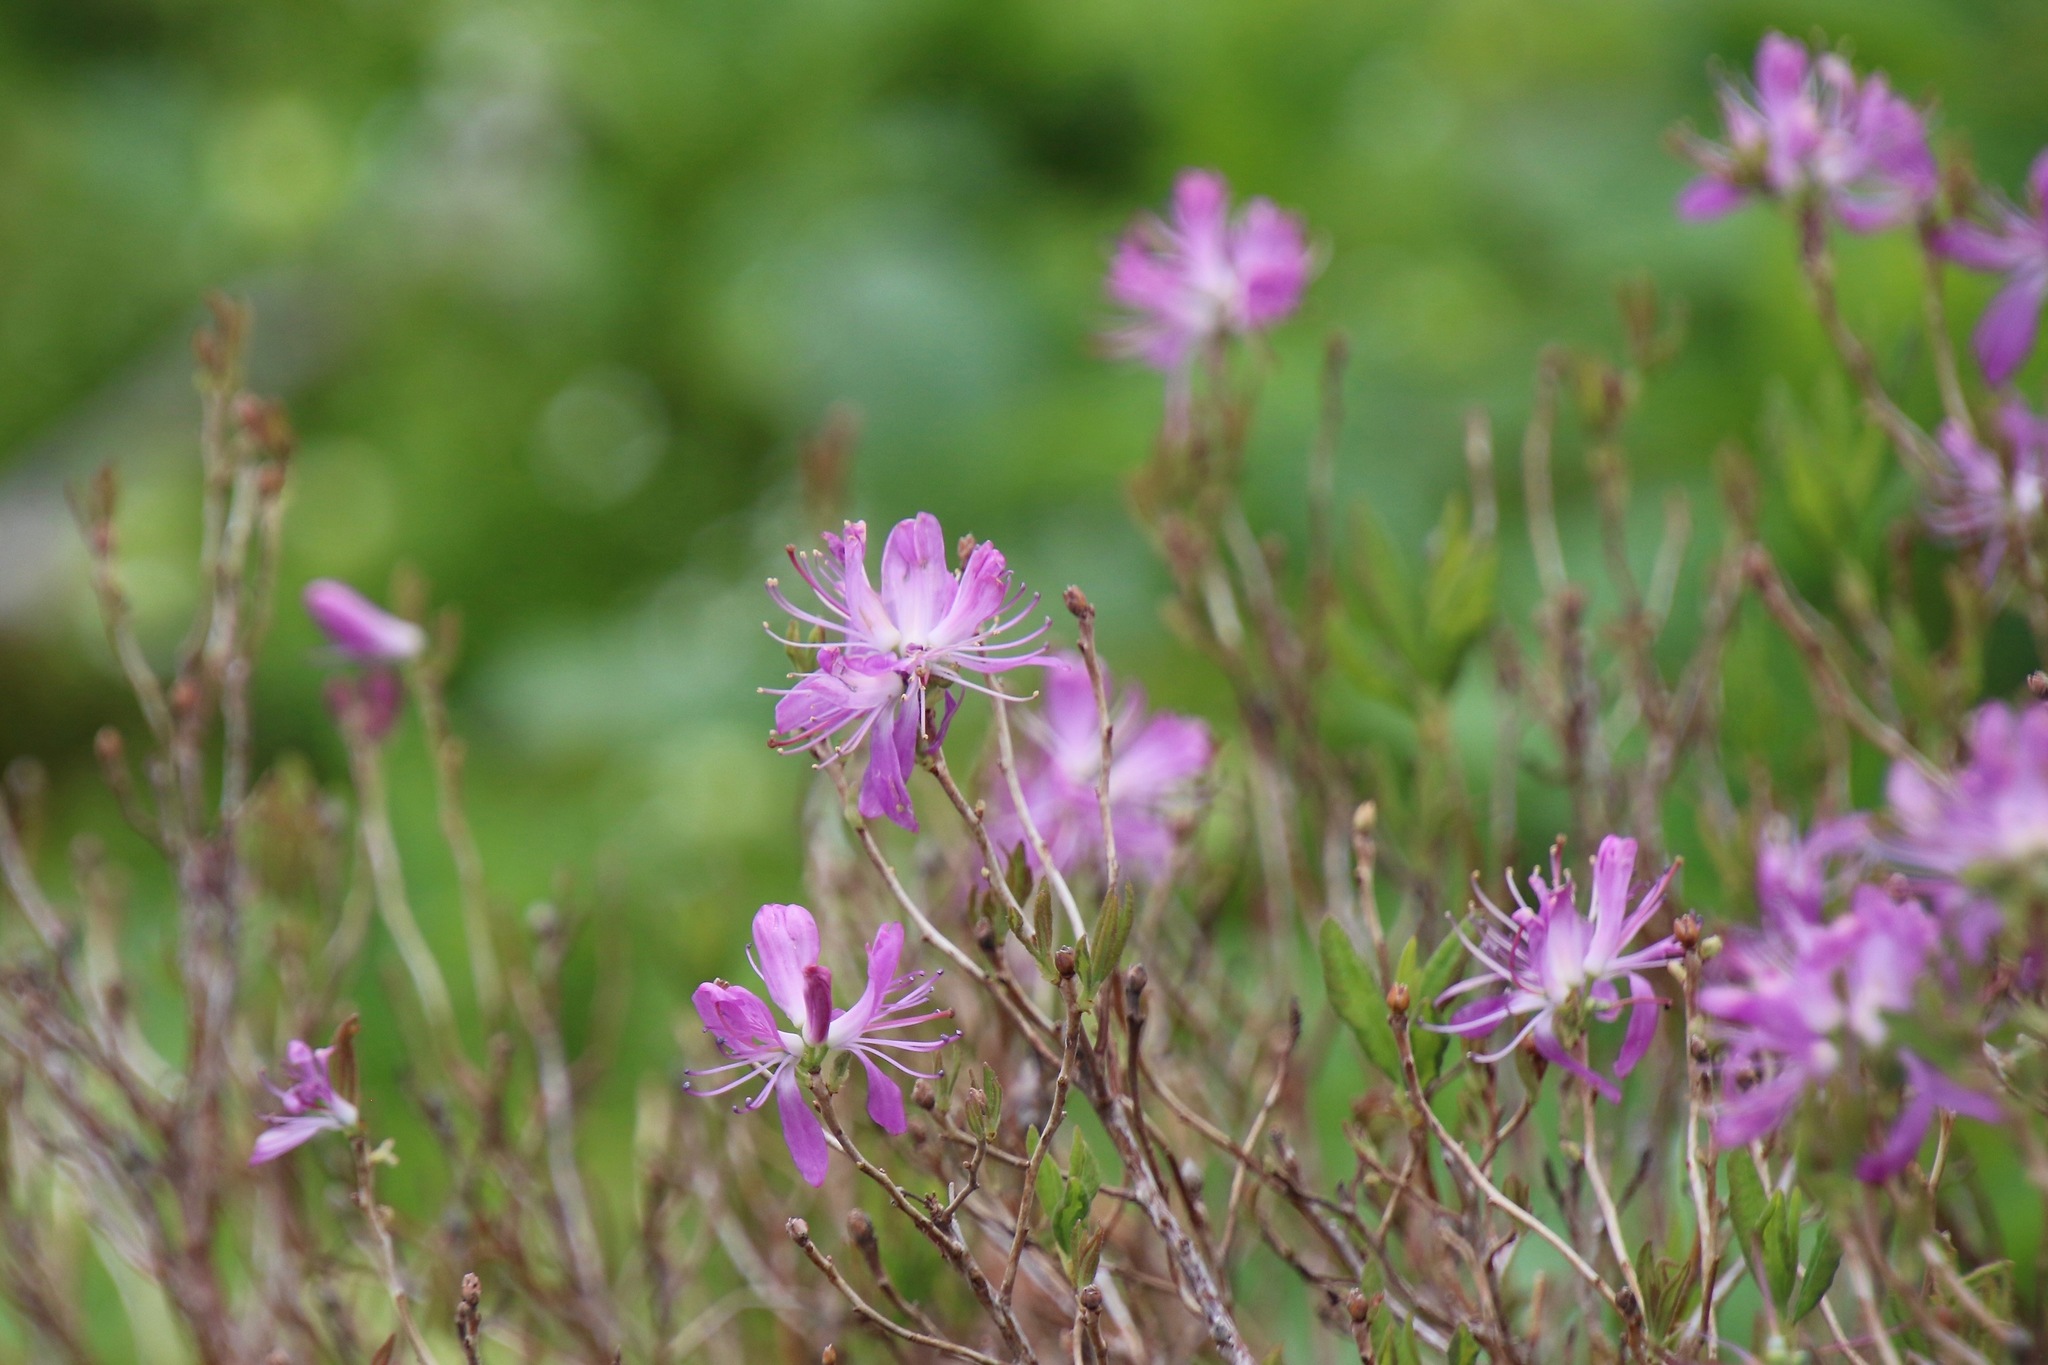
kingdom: Plantae
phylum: Tracheophyta
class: Magnoliopsida
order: Ericales
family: Ericaceae
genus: Rhododendron
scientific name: Rhododendron canadense
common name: Rhodora
